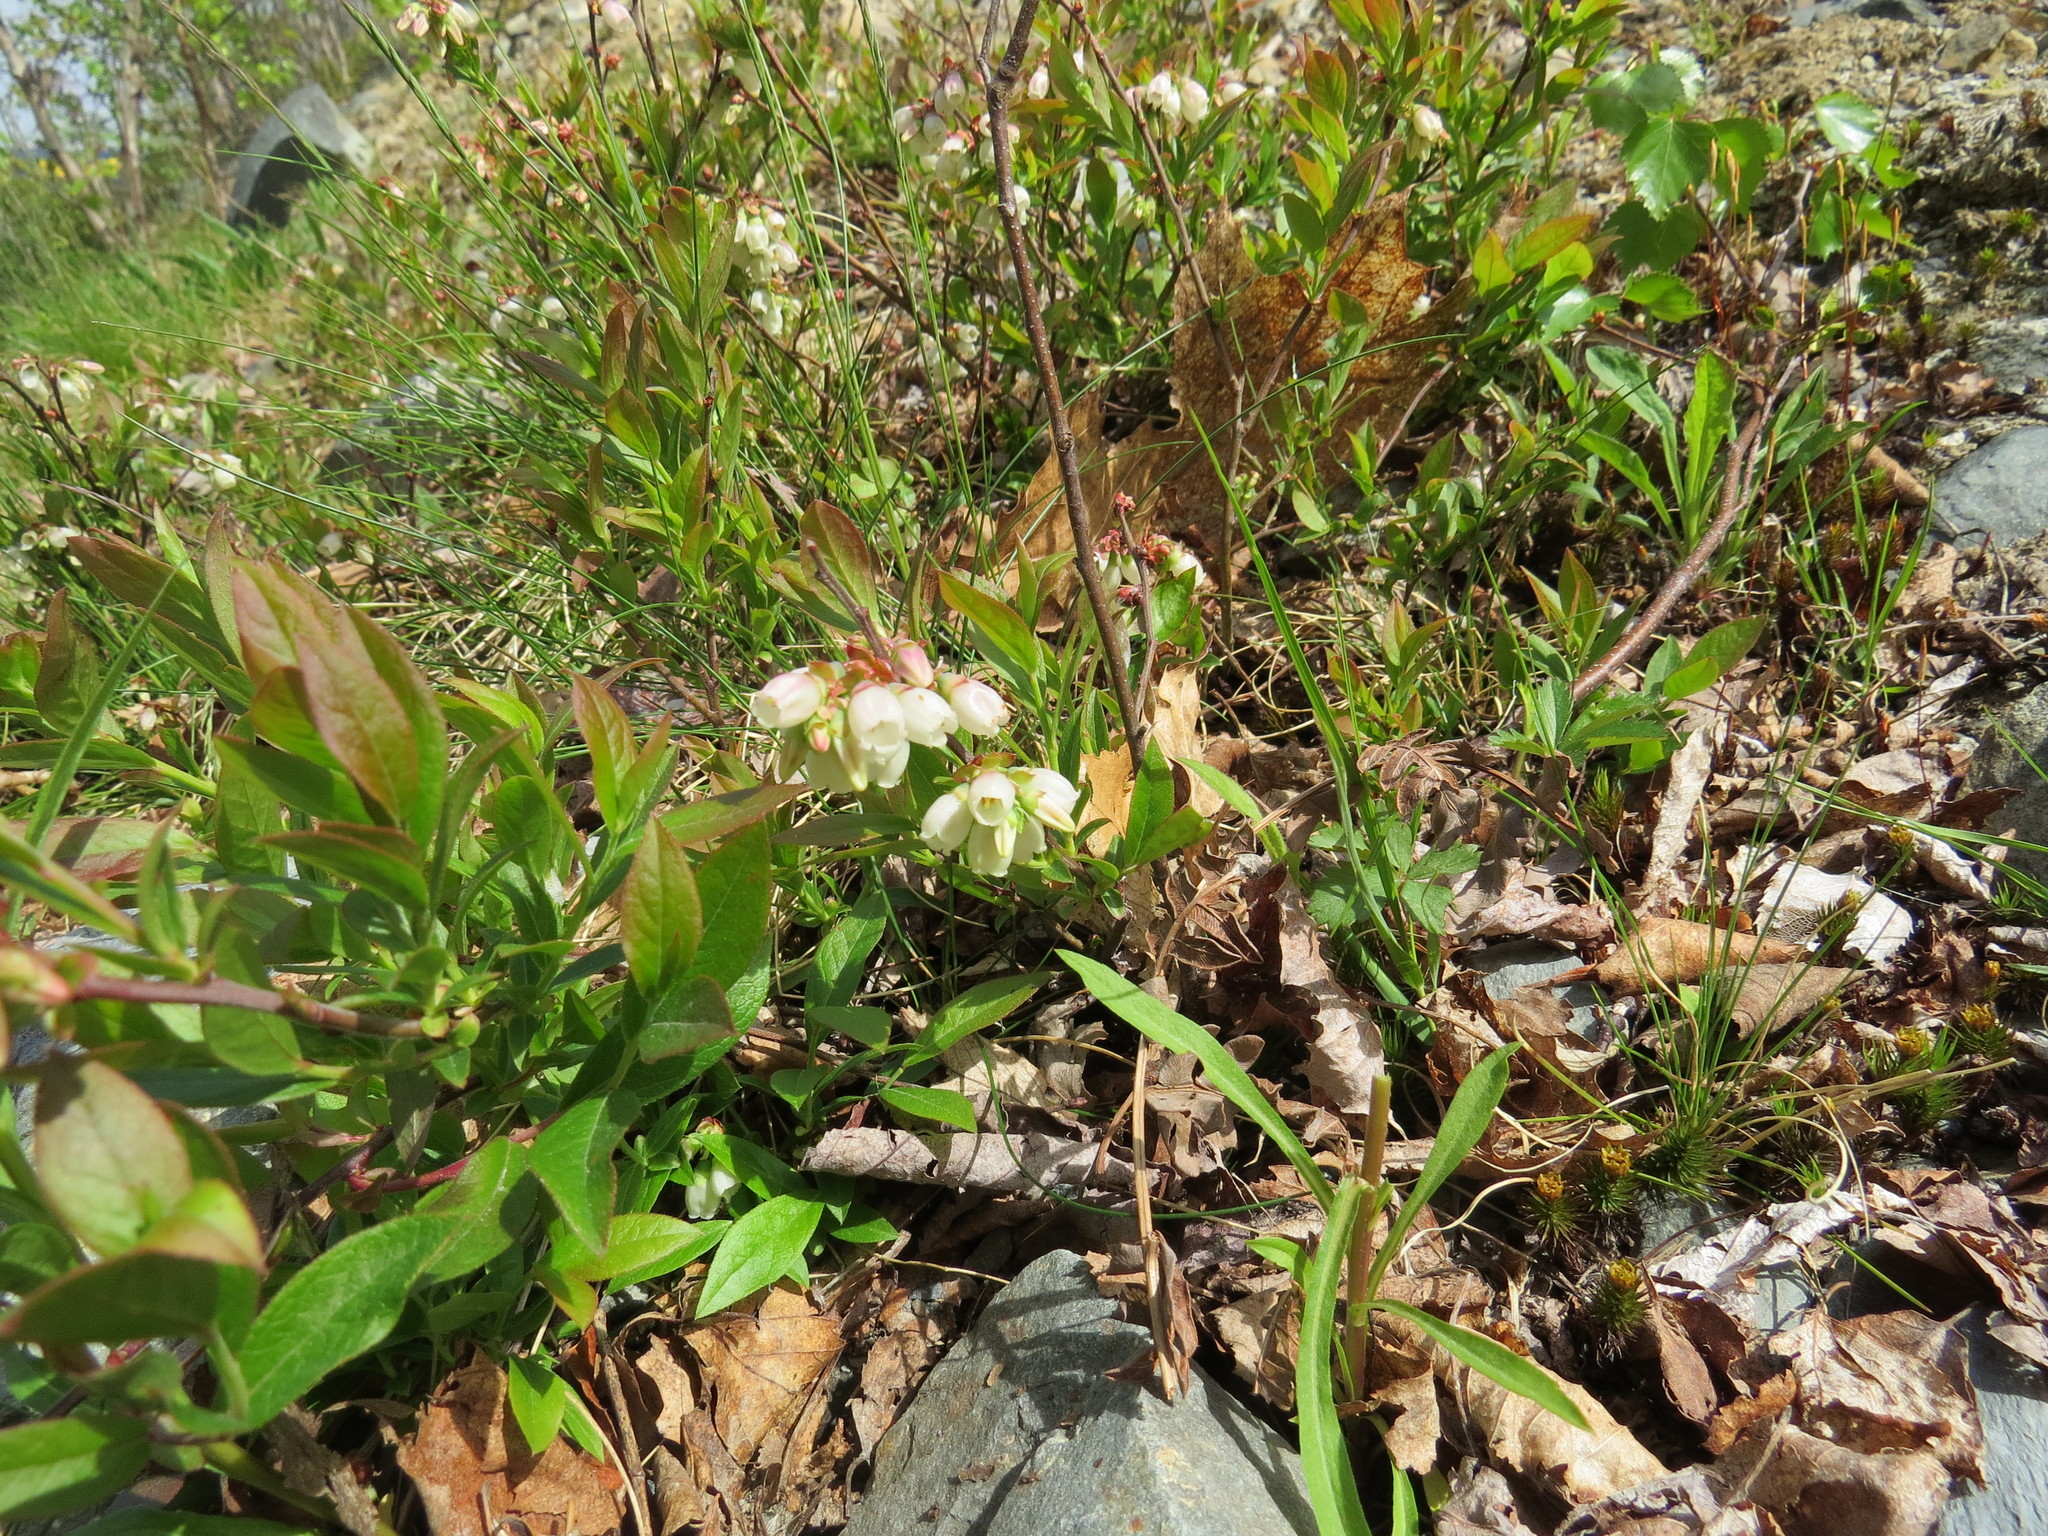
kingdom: Plantae
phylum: Tracheophyta
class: Magnoliopsida
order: Ericales
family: Ericaceae
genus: Vaccinium
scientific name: Vaccinium angustifolium
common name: Early lowbush blueberry
